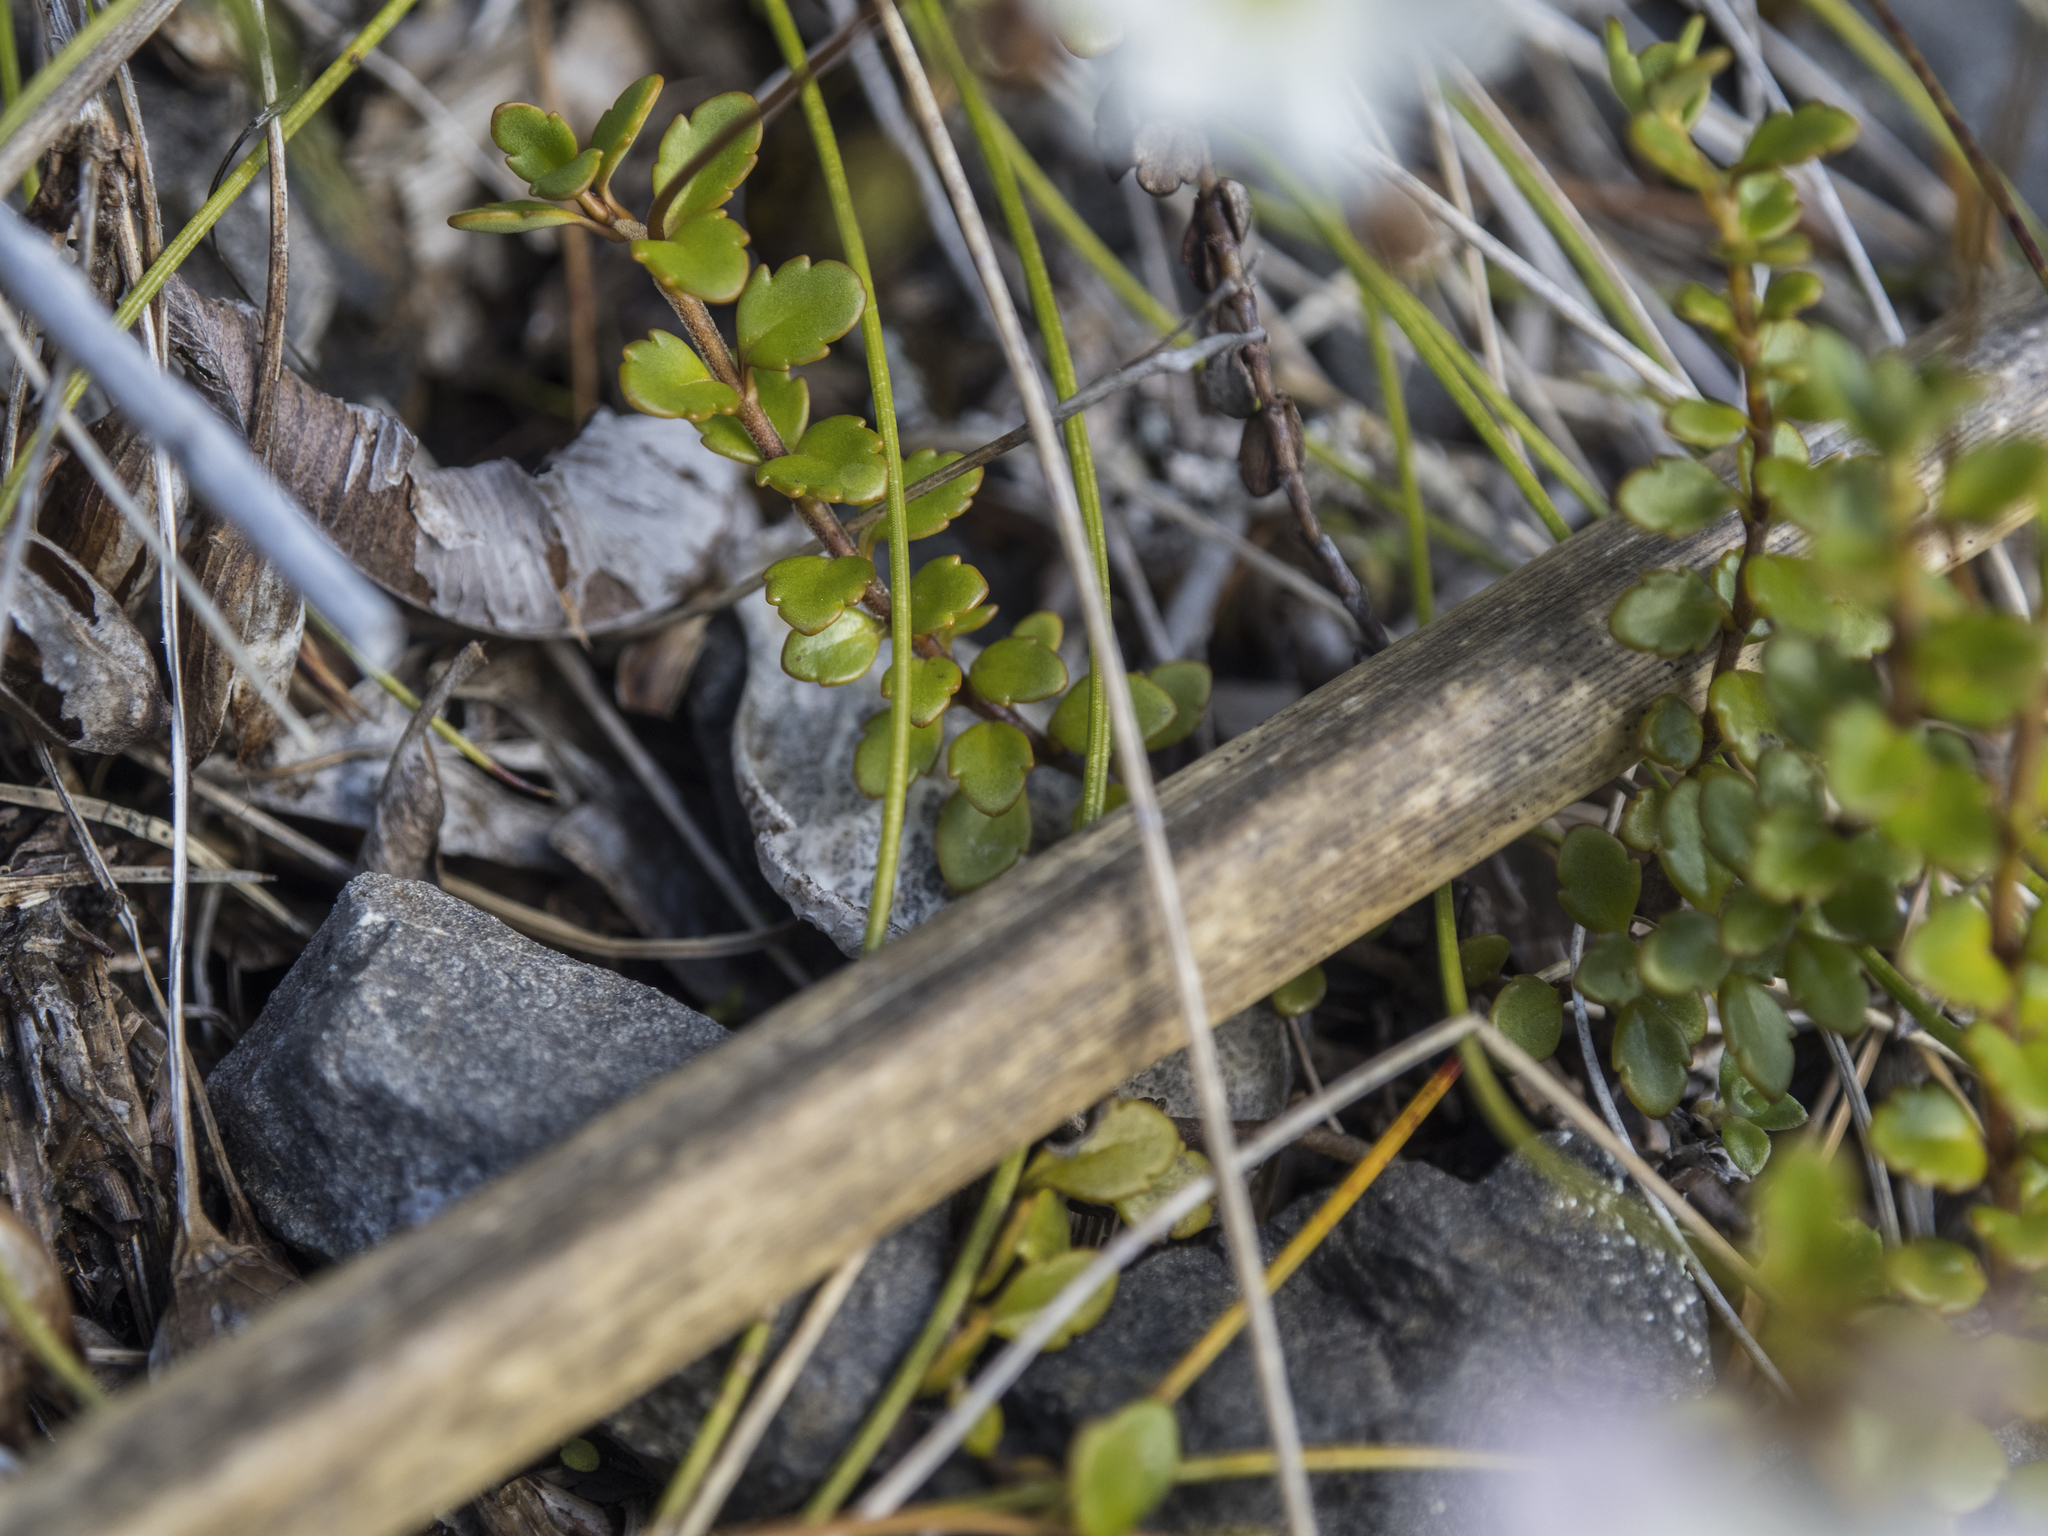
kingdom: Plantae
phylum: Tracheophyta
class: Magnoliopsida
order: Lamiales
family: Plantaginaceae
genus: Veronica
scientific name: Veronica lyallii
